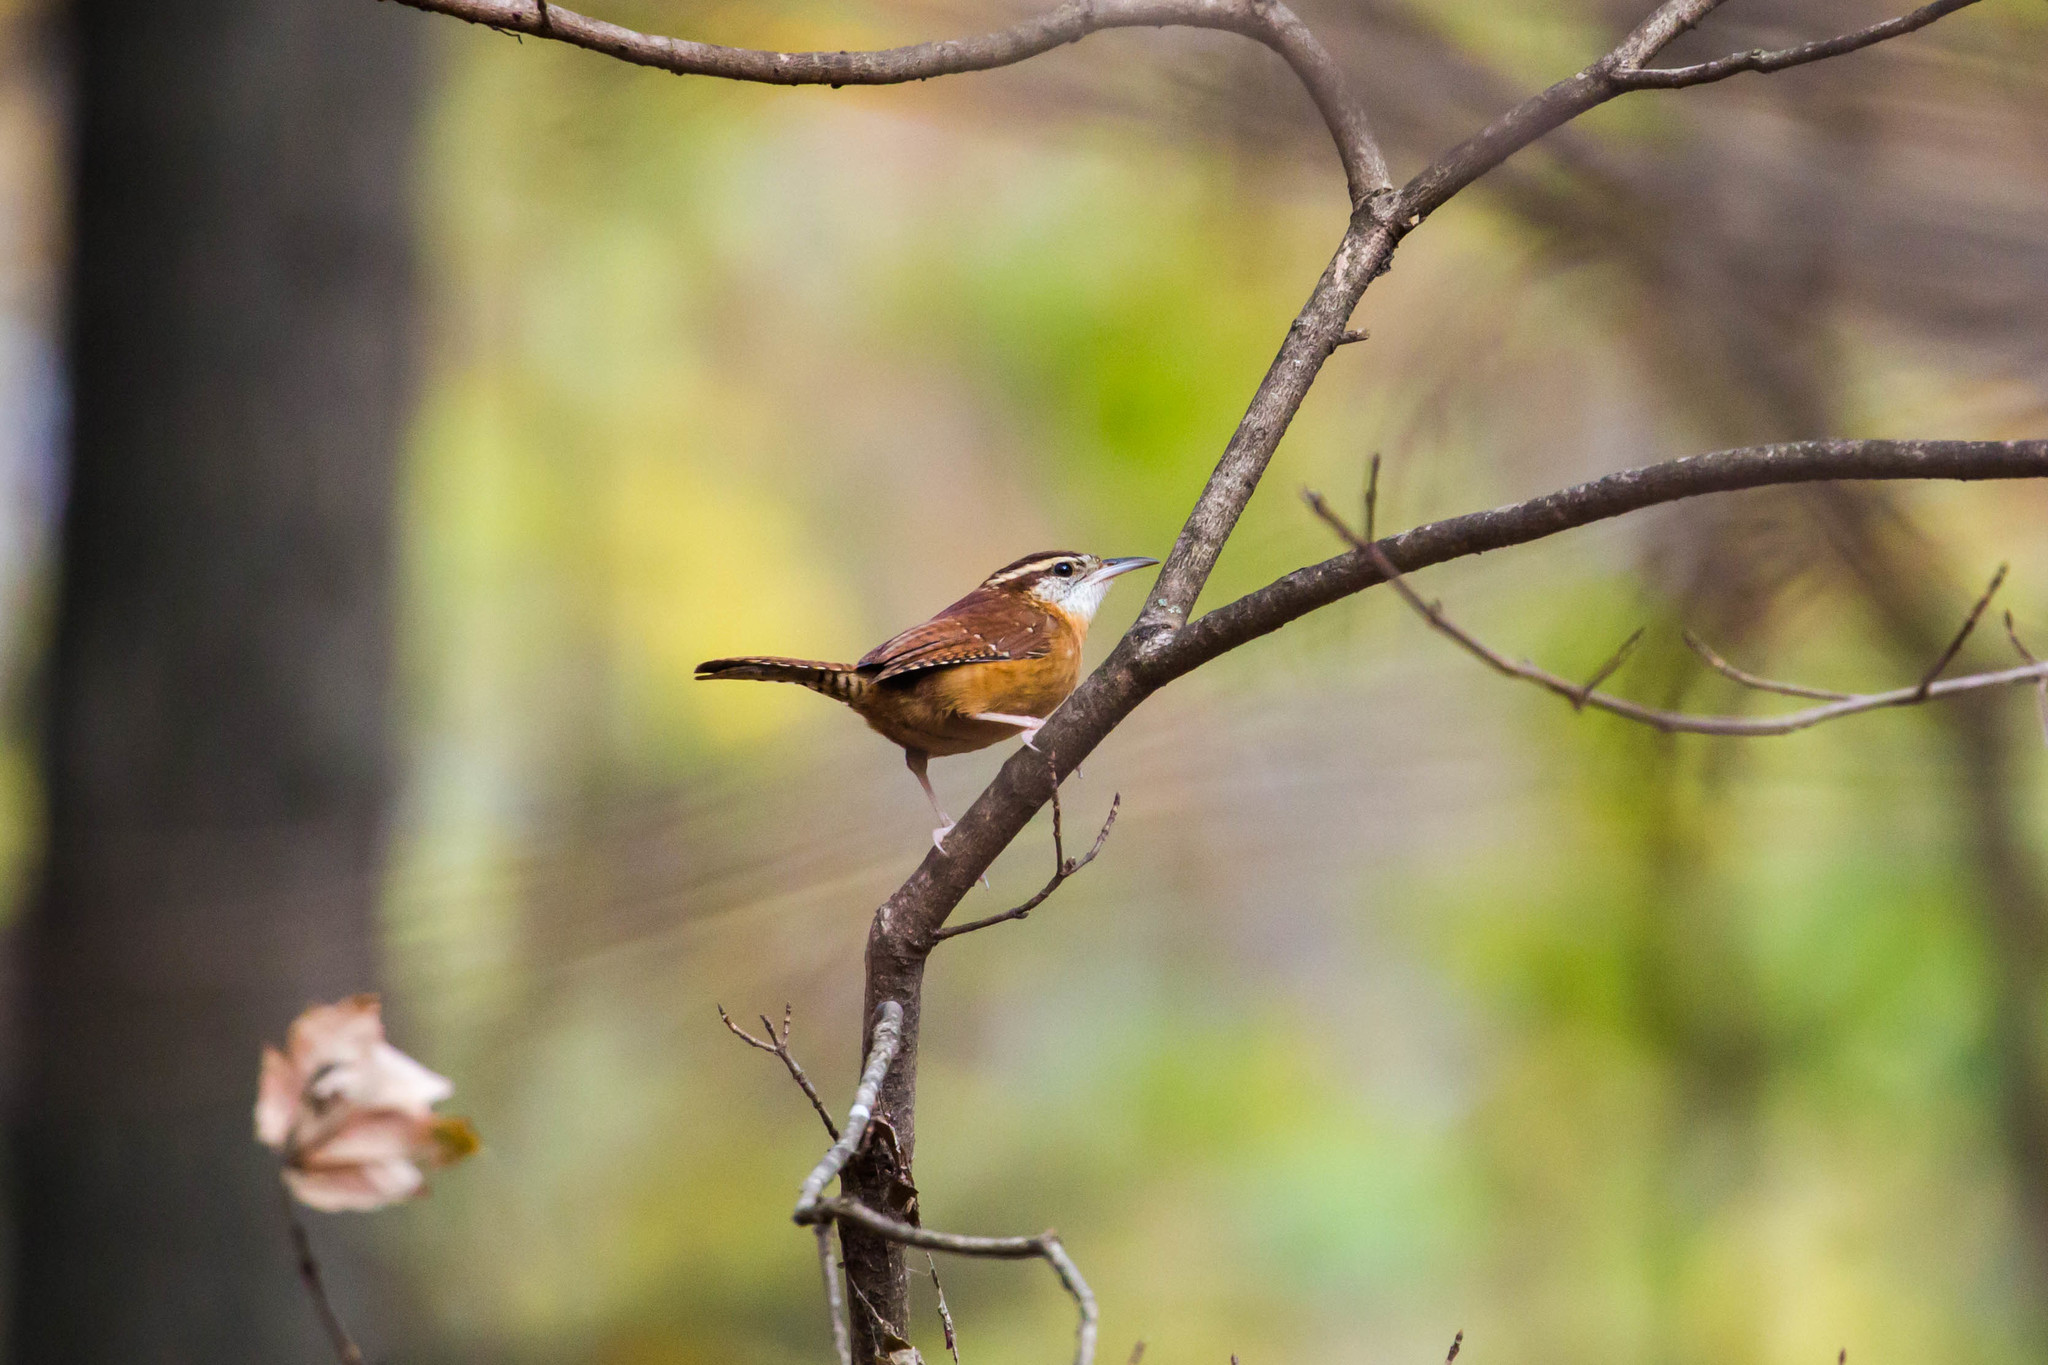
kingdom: Animalia
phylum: Chordata
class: Aves
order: Passeriformes
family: Troglodytidae
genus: Thryothorus
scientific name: Thryothorus ludovicianus
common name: Carolina wren
